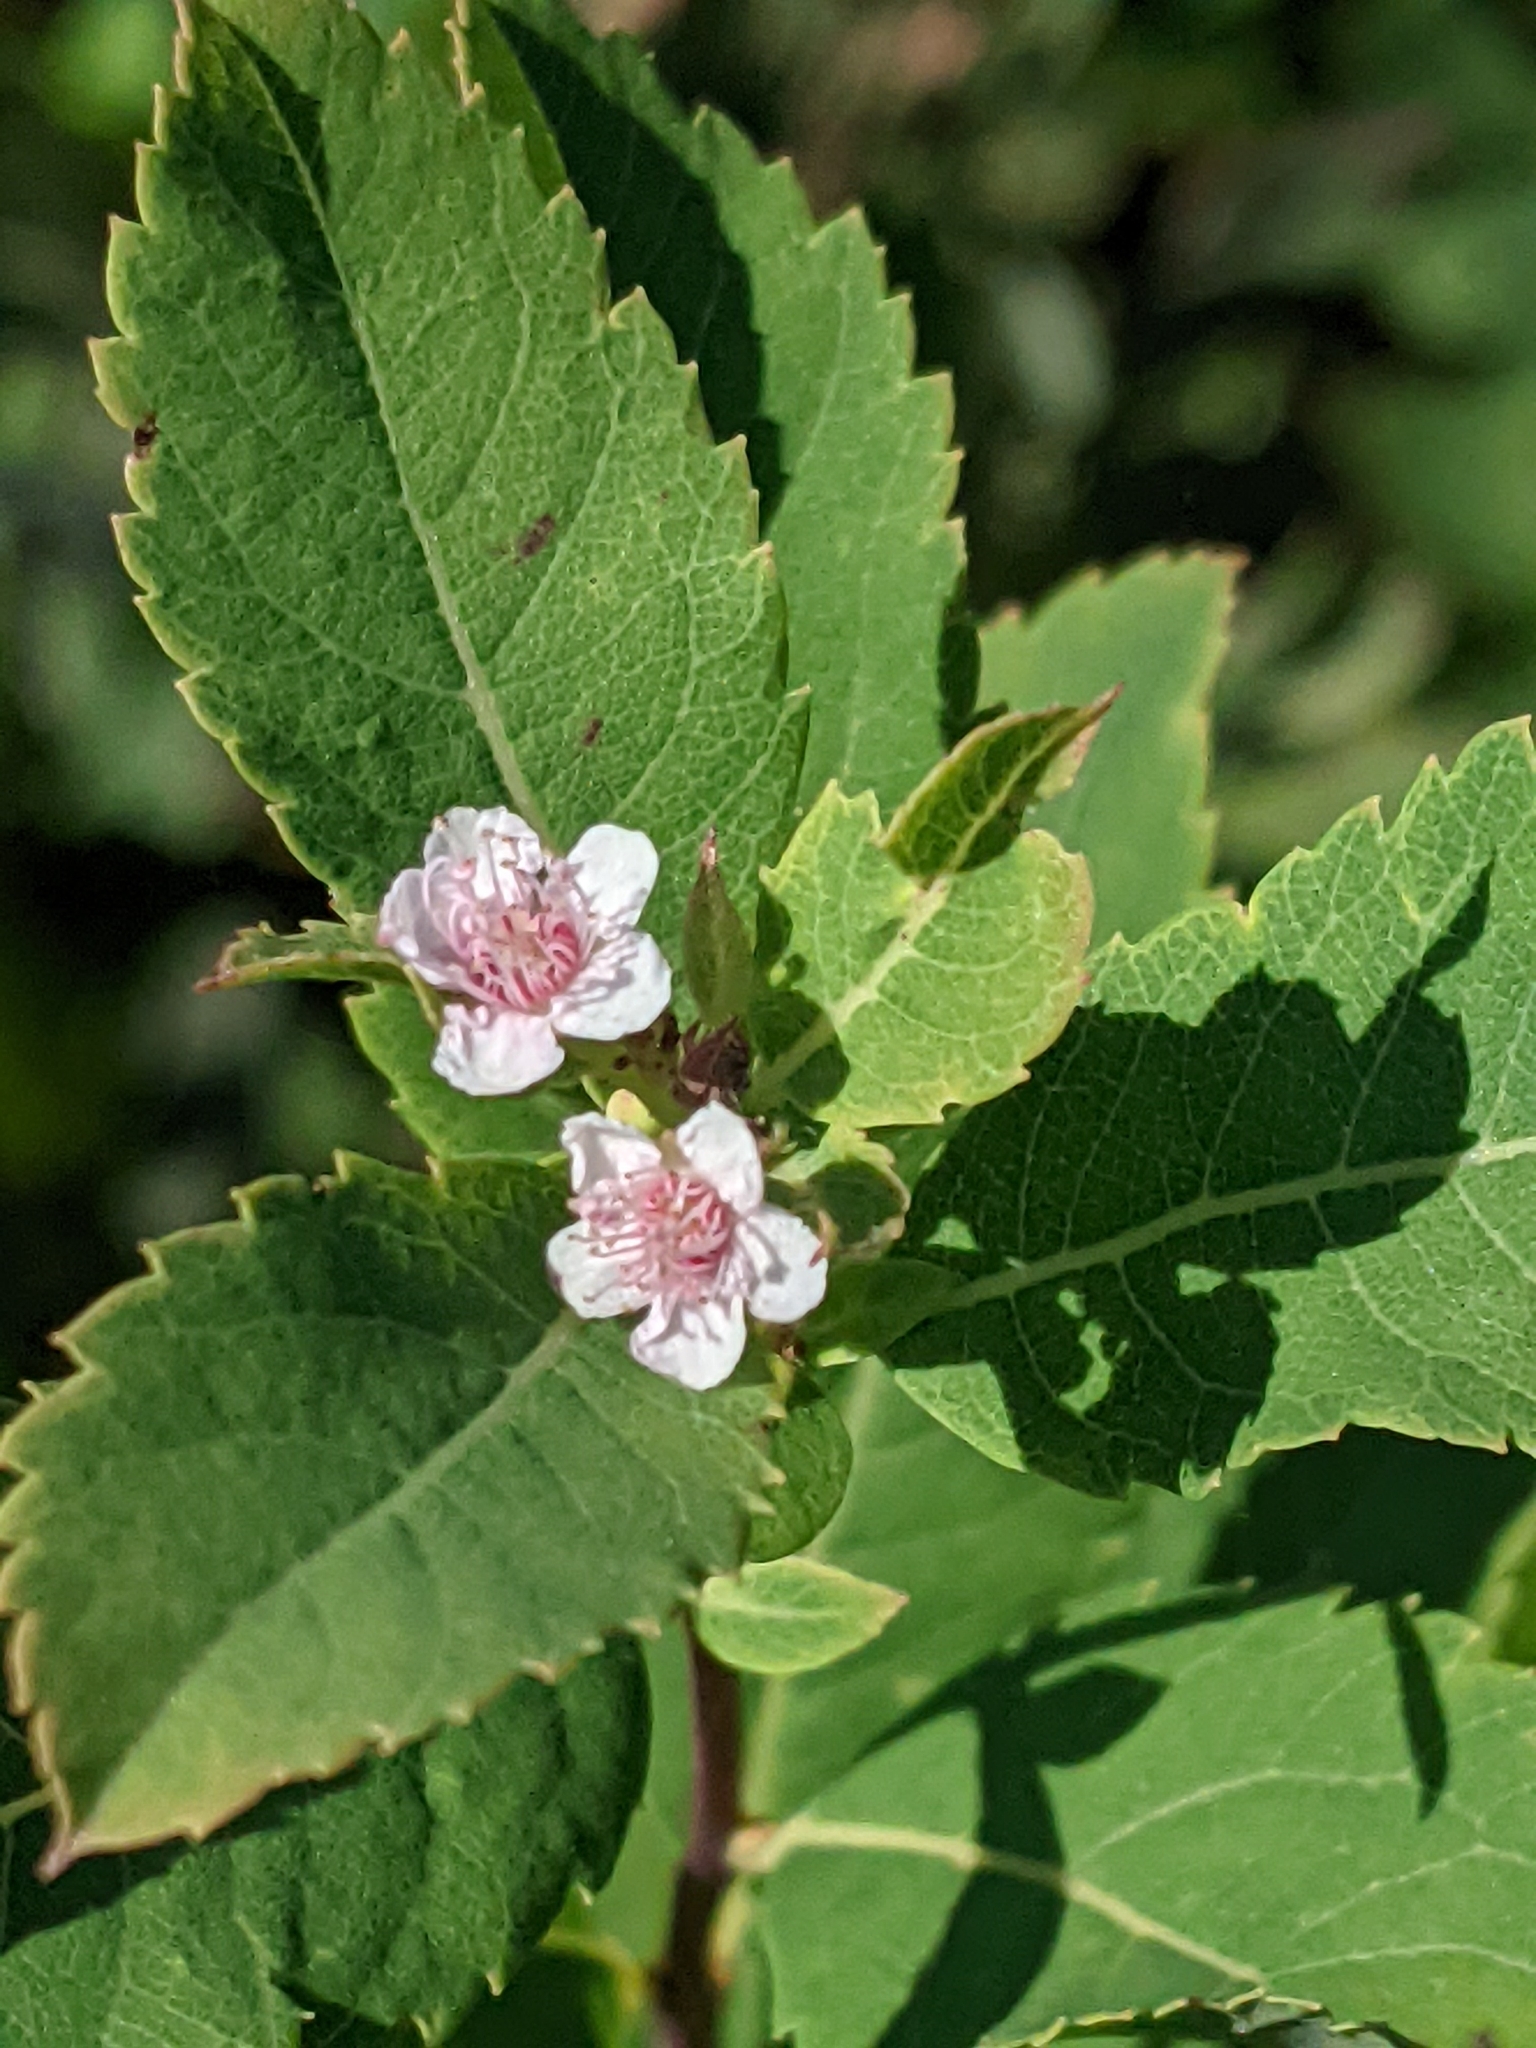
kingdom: Plantae
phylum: Tracheophyta
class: Magnoliopsida
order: Rosales
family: Rosaceae
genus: Spiraea
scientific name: Spiraea alba
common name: Pale bridewort
